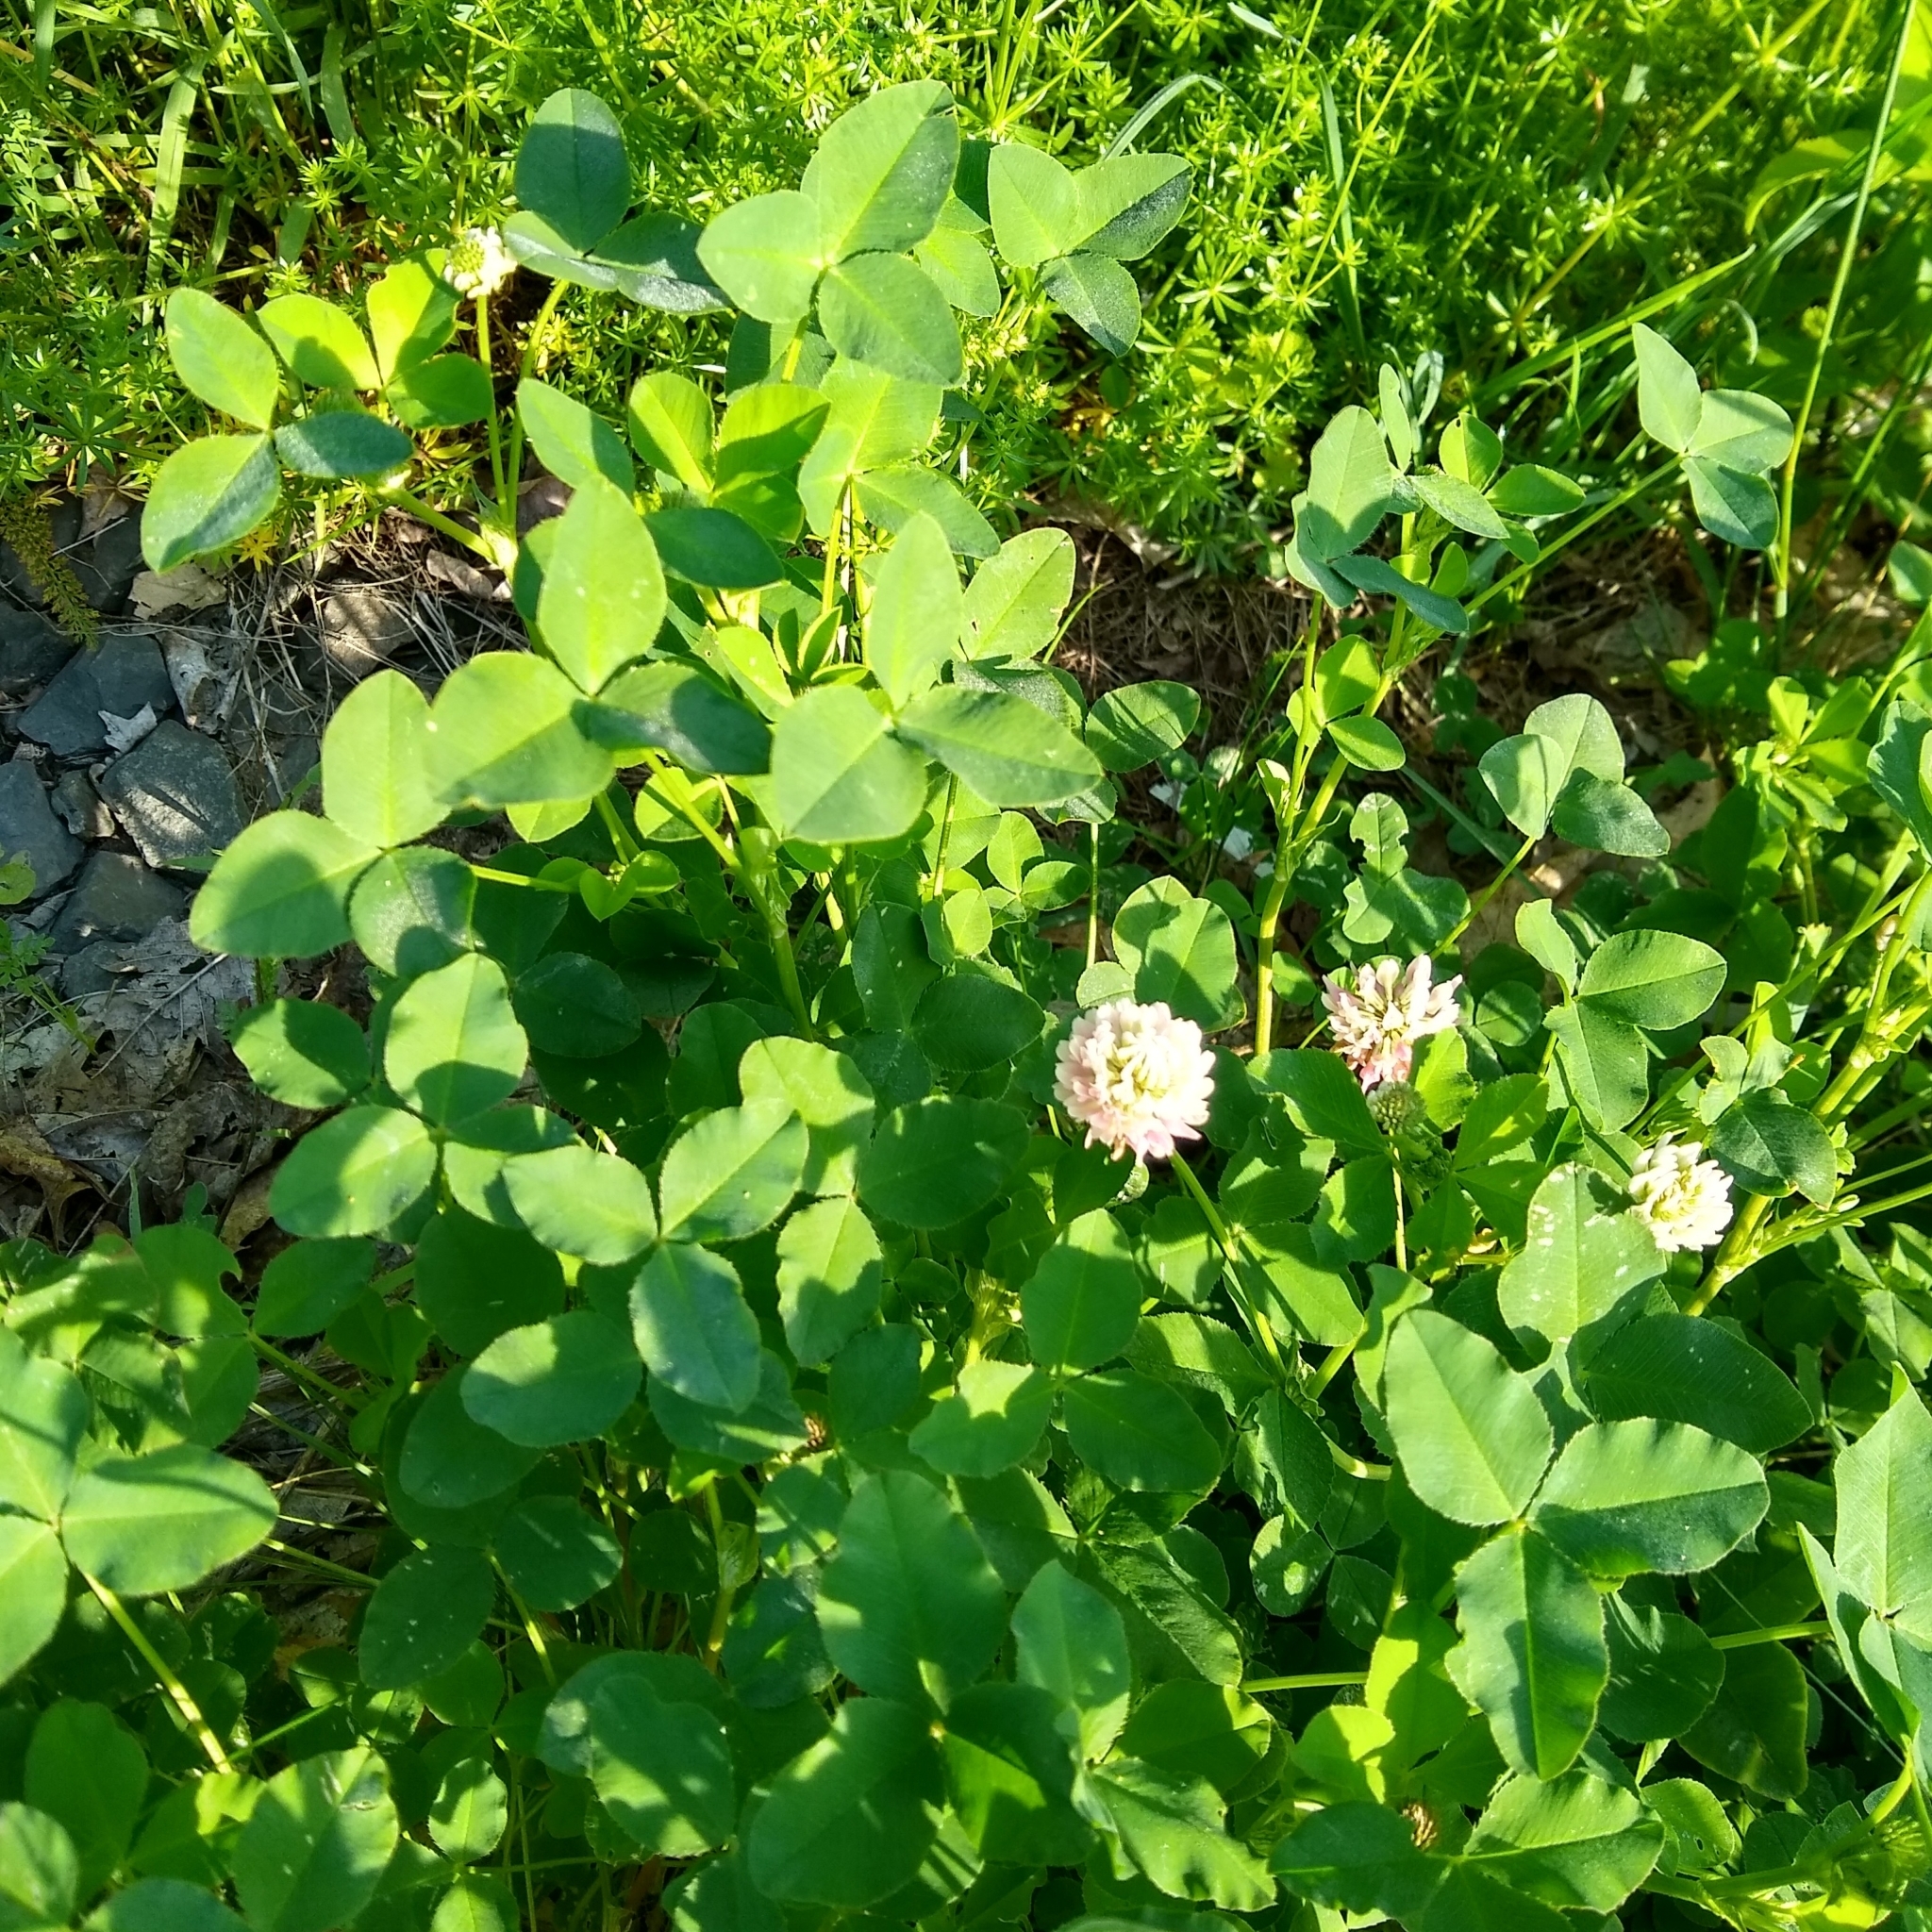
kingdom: Plantae
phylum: Tracheophyta
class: Magnoliopsida
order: Fabales
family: Fabaceae
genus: Trifolium
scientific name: Trifolium hybridum
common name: Alsike clover
